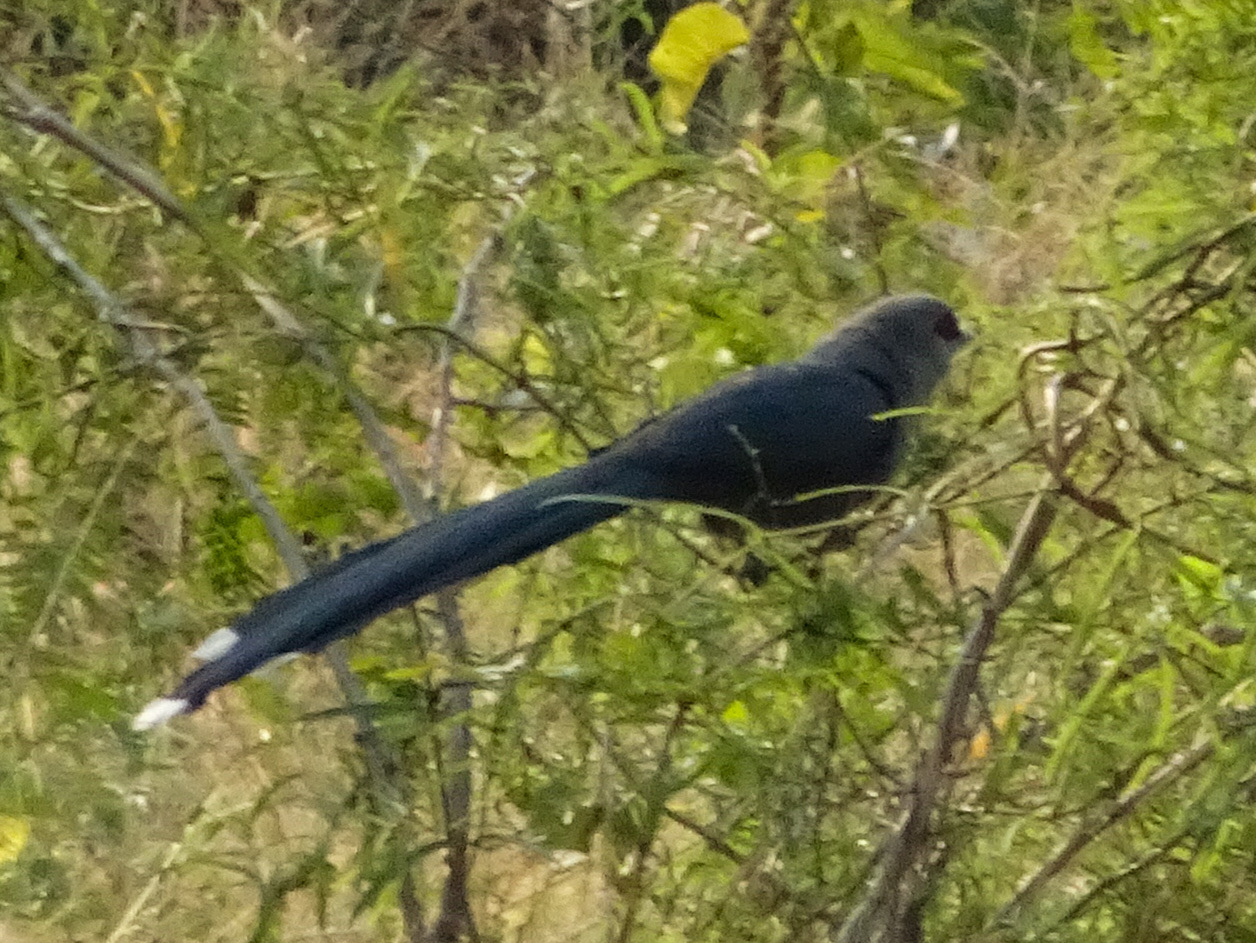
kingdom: Animalia
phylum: Chordata
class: Aves
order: Cuculiformes
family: Cuculidae
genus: Rhopodytes
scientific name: Rhopodytes tristis
